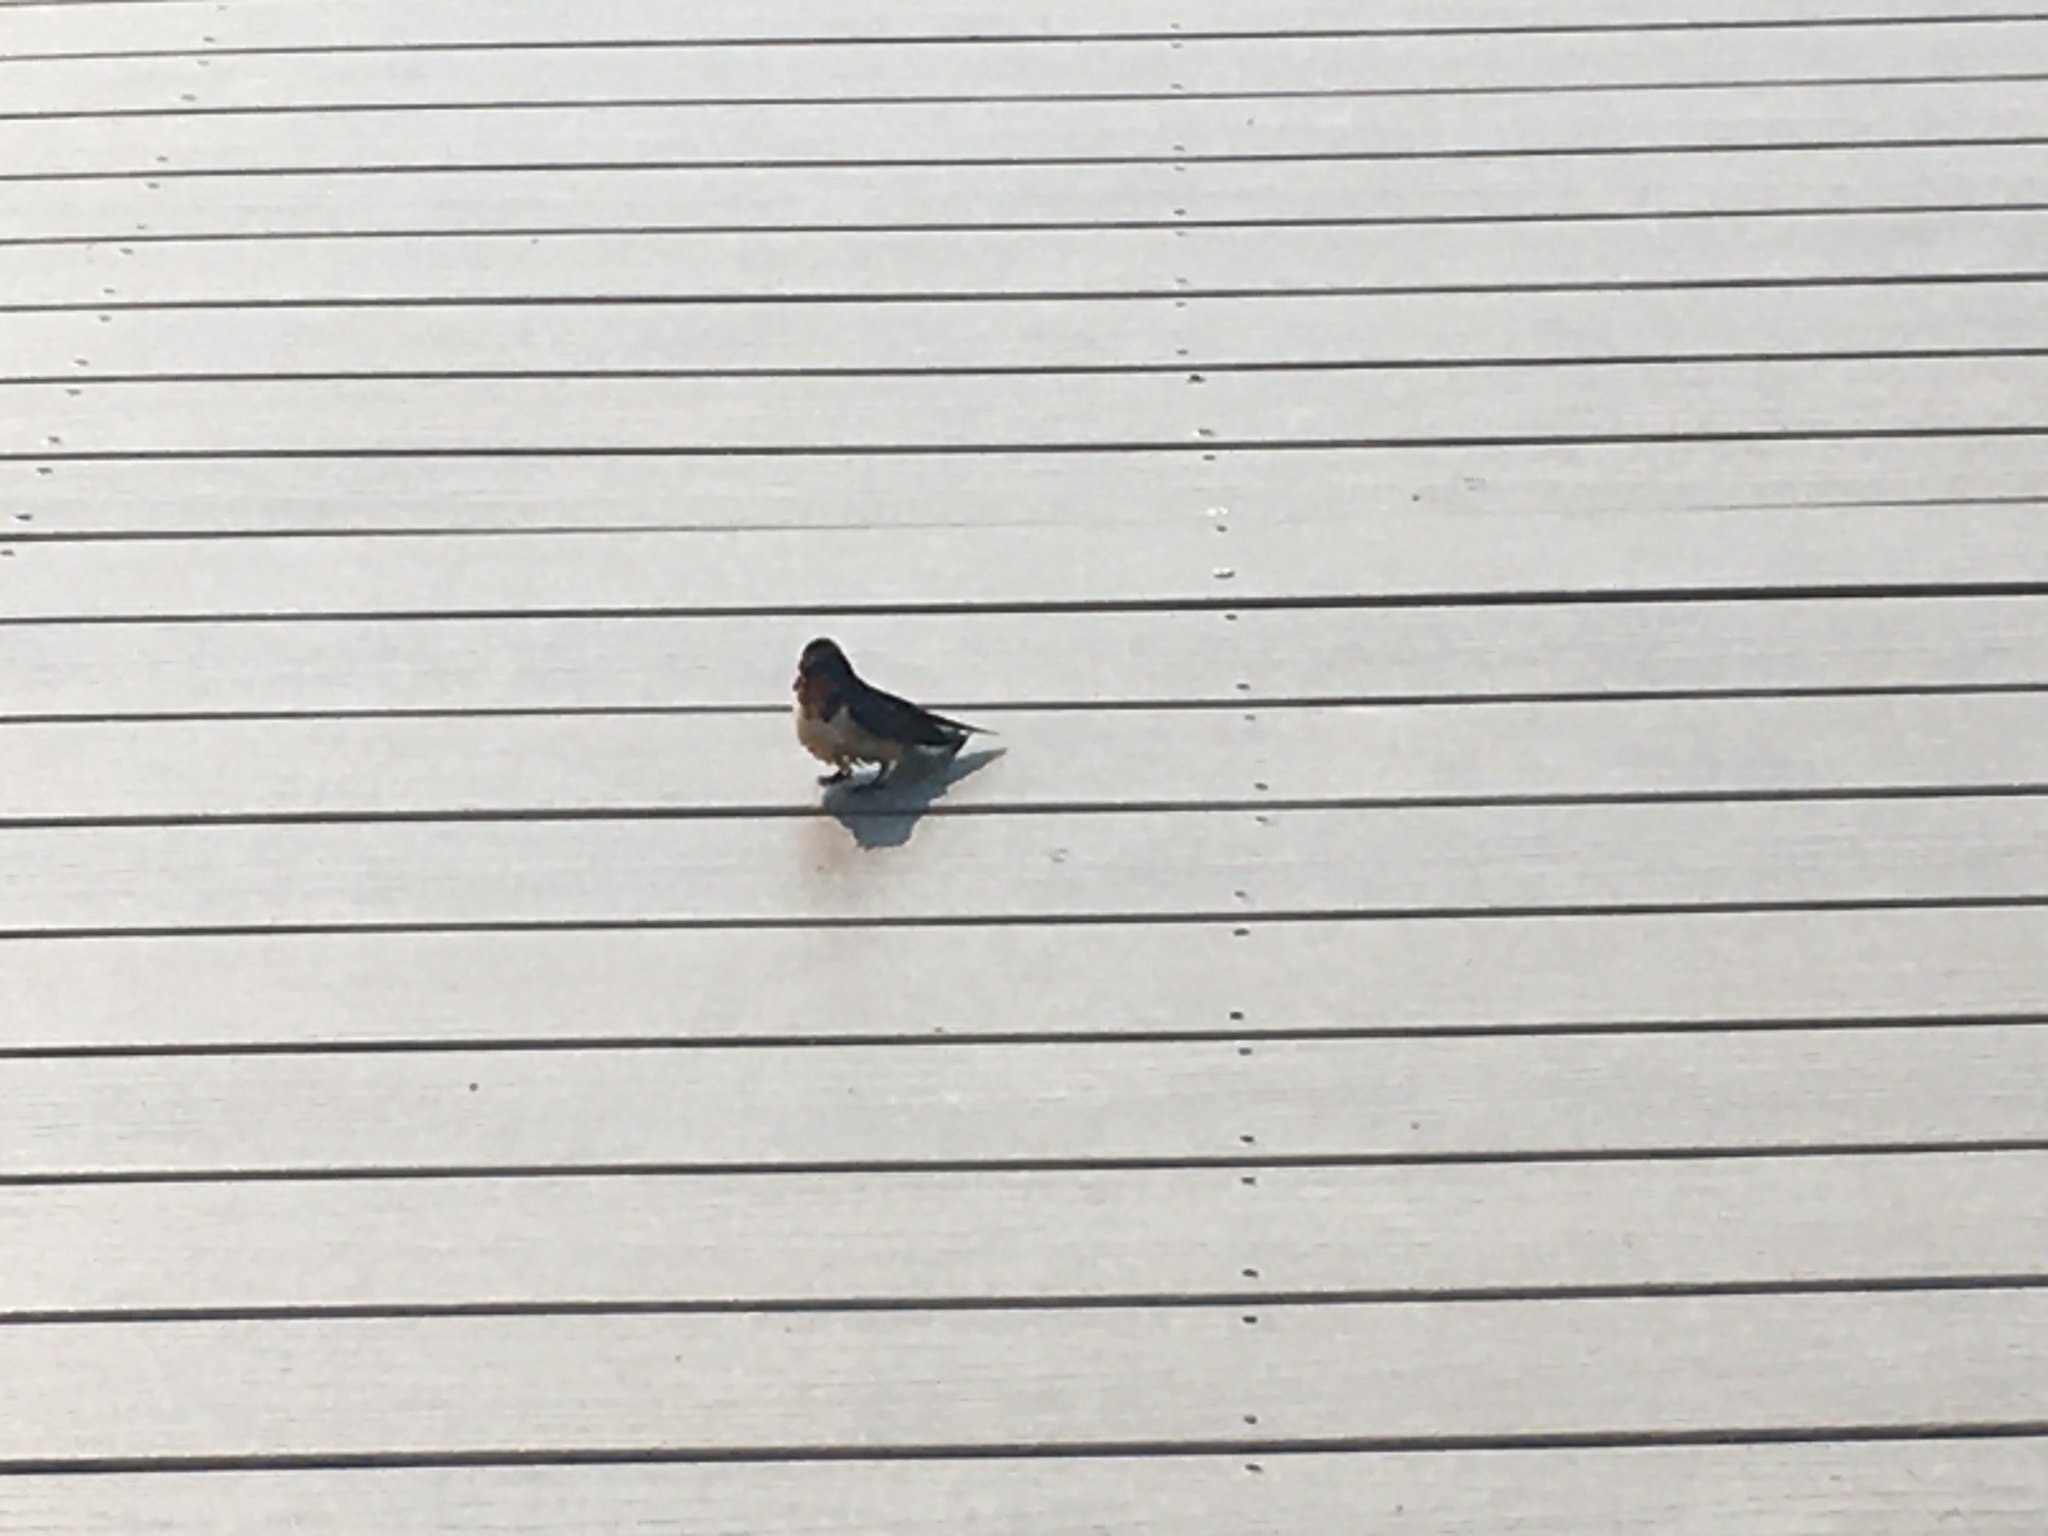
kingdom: Animalia
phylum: Chordata
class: Aves
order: Passeriformes
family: Hirundinidae
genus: Hirundo
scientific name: Hirundo rustica
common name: Barn swallow
